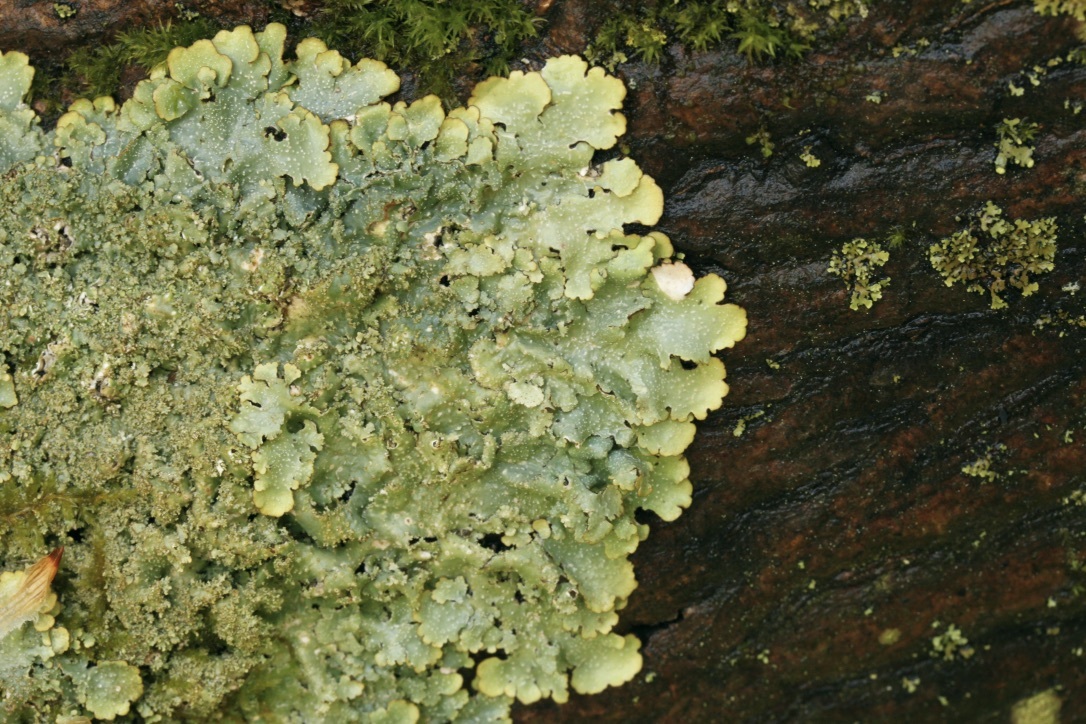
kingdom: Fungi
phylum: Ascomycota
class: Lecanoromycetes
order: Lecanorales
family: Parmeliaceae
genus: Punctelia
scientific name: Punctelia rudecta
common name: Rough speckled shield lichen
